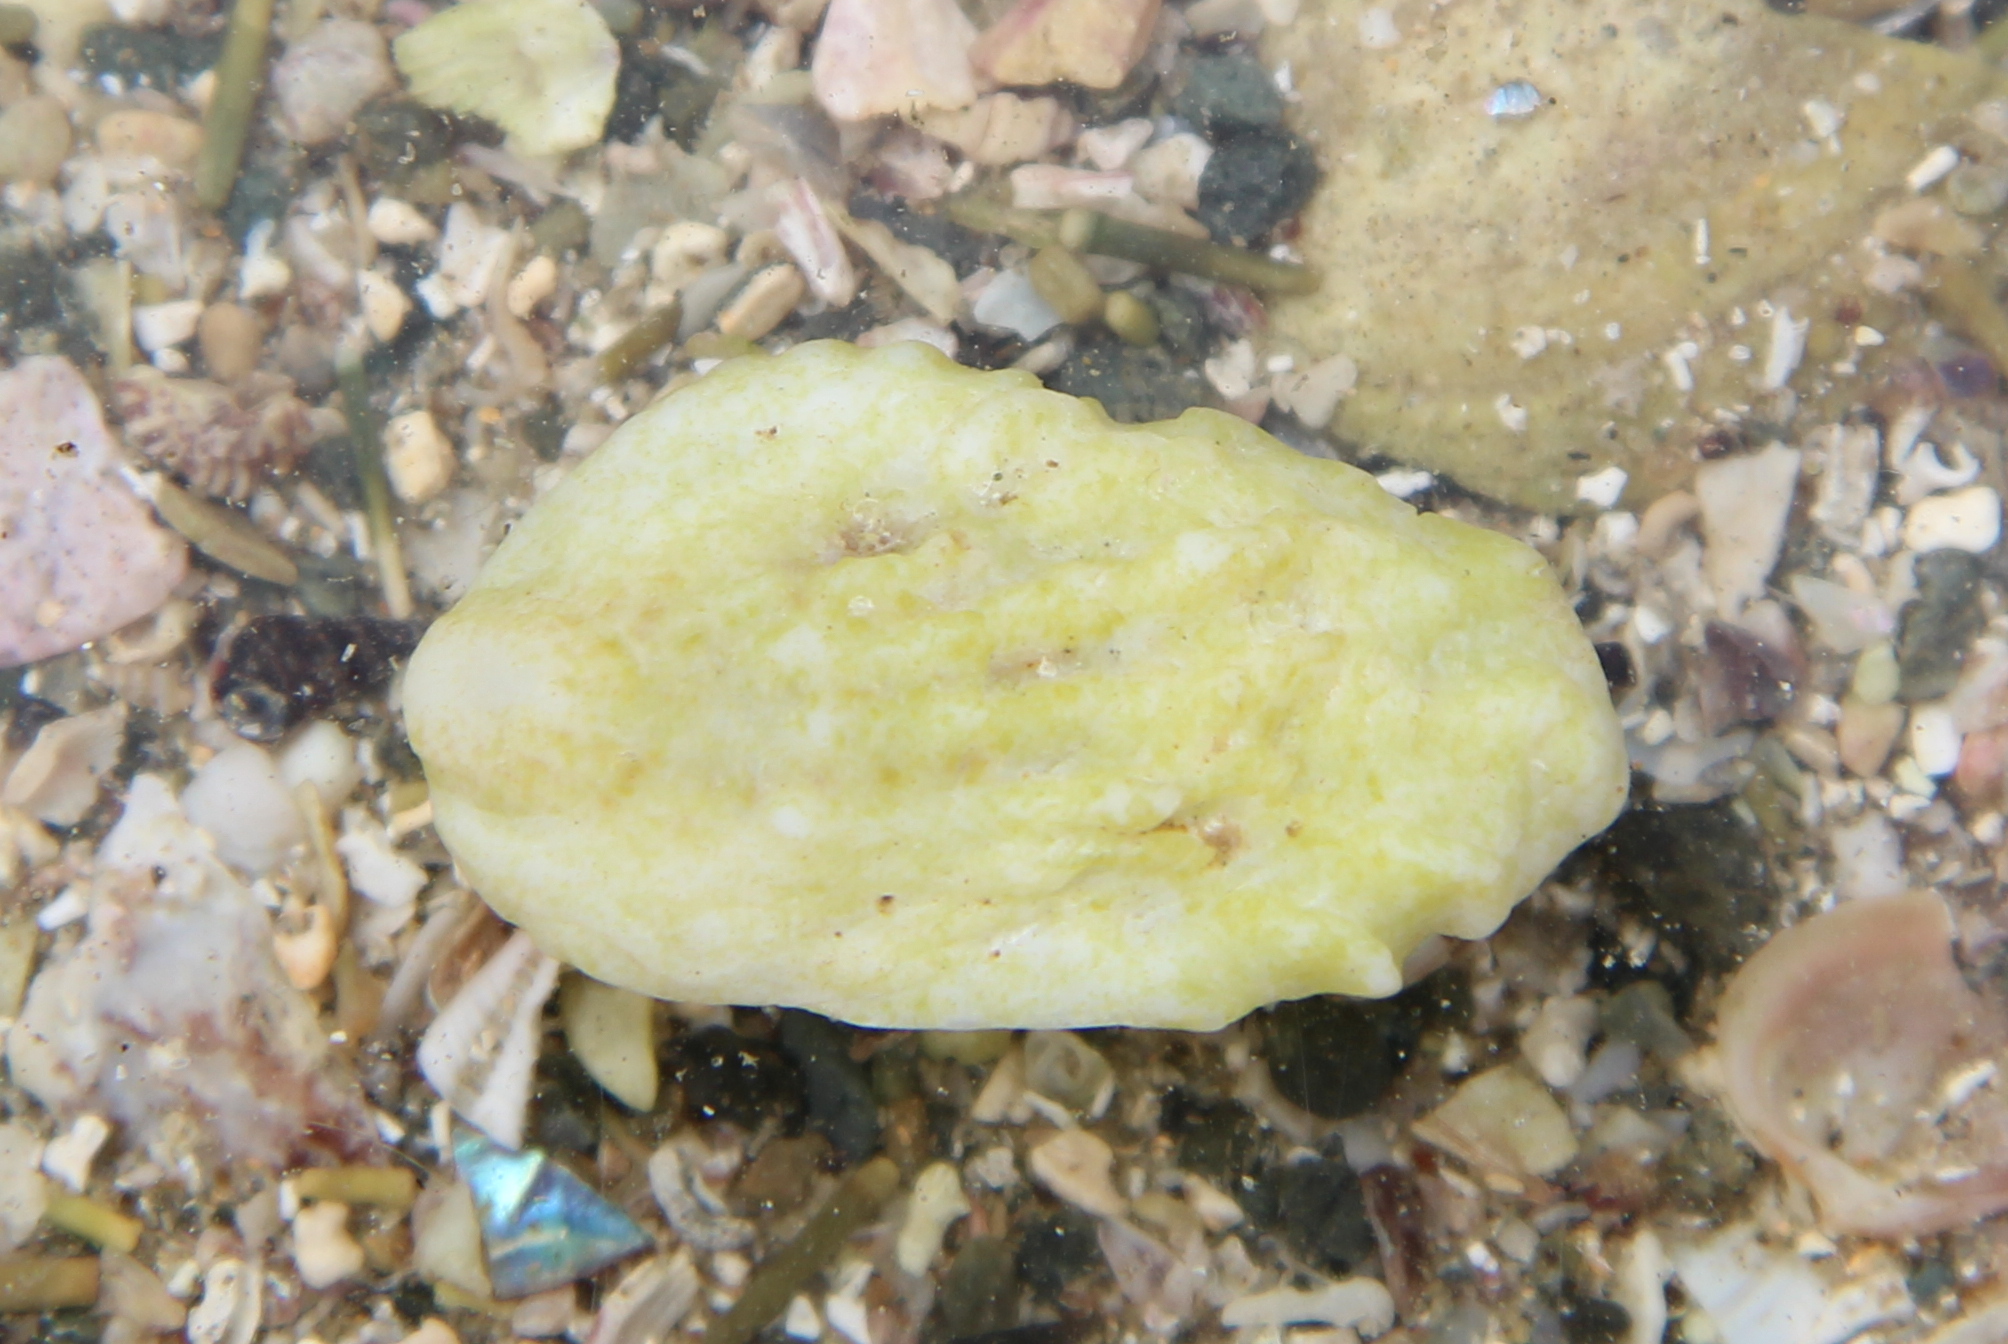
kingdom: Animalia
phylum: Mollusca
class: Gastropoda
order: Littorinimorpha
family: Calyptraeidae
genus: Maoricrypta
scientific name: Maoricrypta costata
